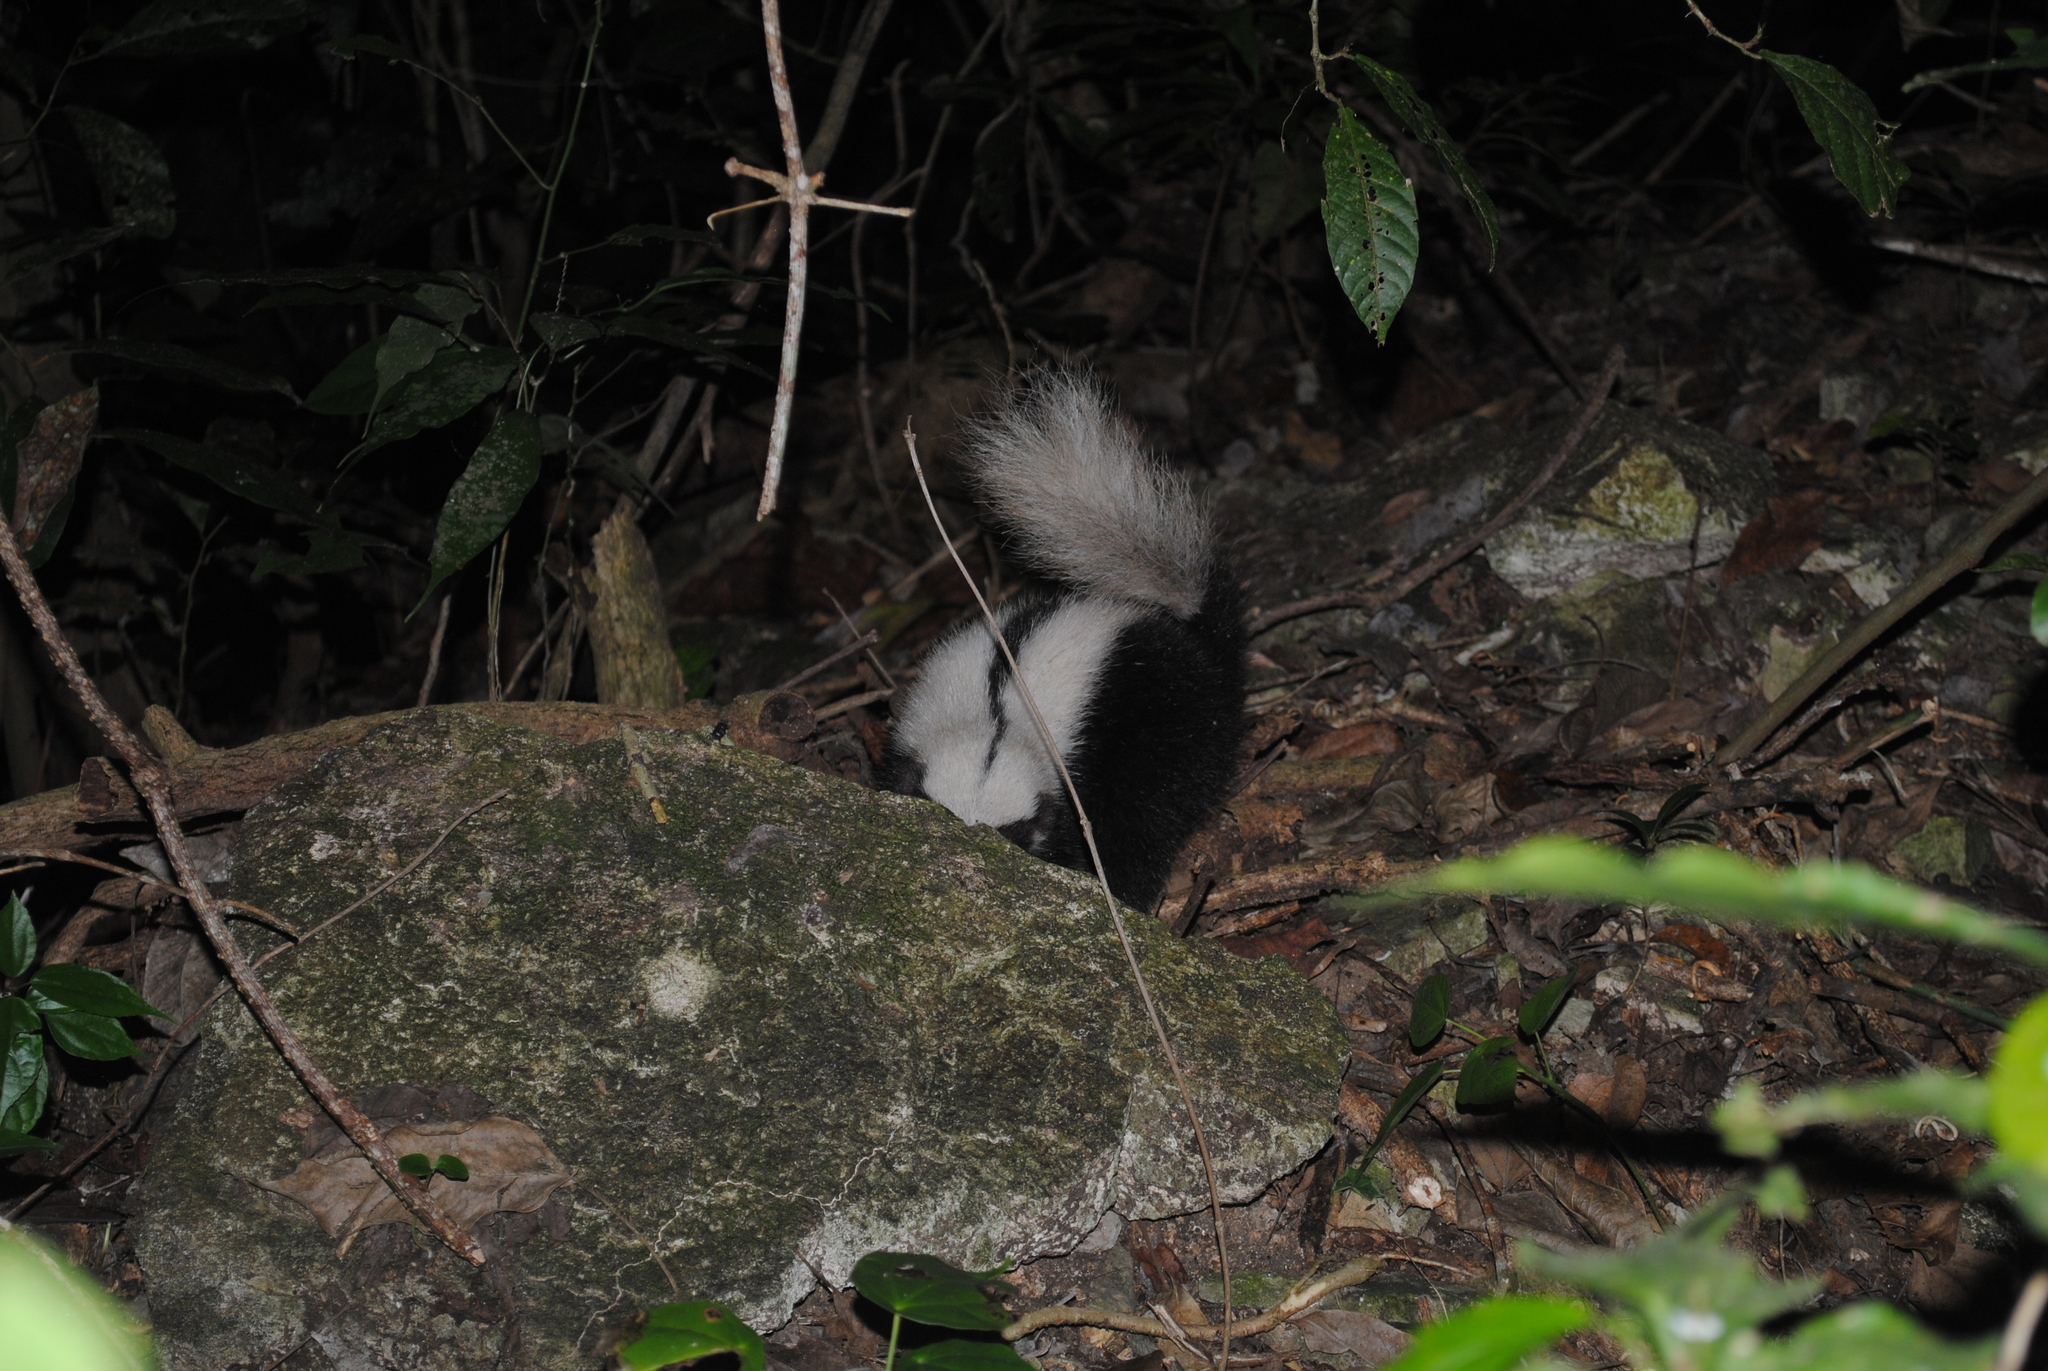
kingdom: Animalia
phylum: Chordata
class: Mammalia
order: Carnivora
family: Mephitidae
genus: Conepatus
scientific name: Conepatus semistriatus
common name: Striped hog-nosed skunk
